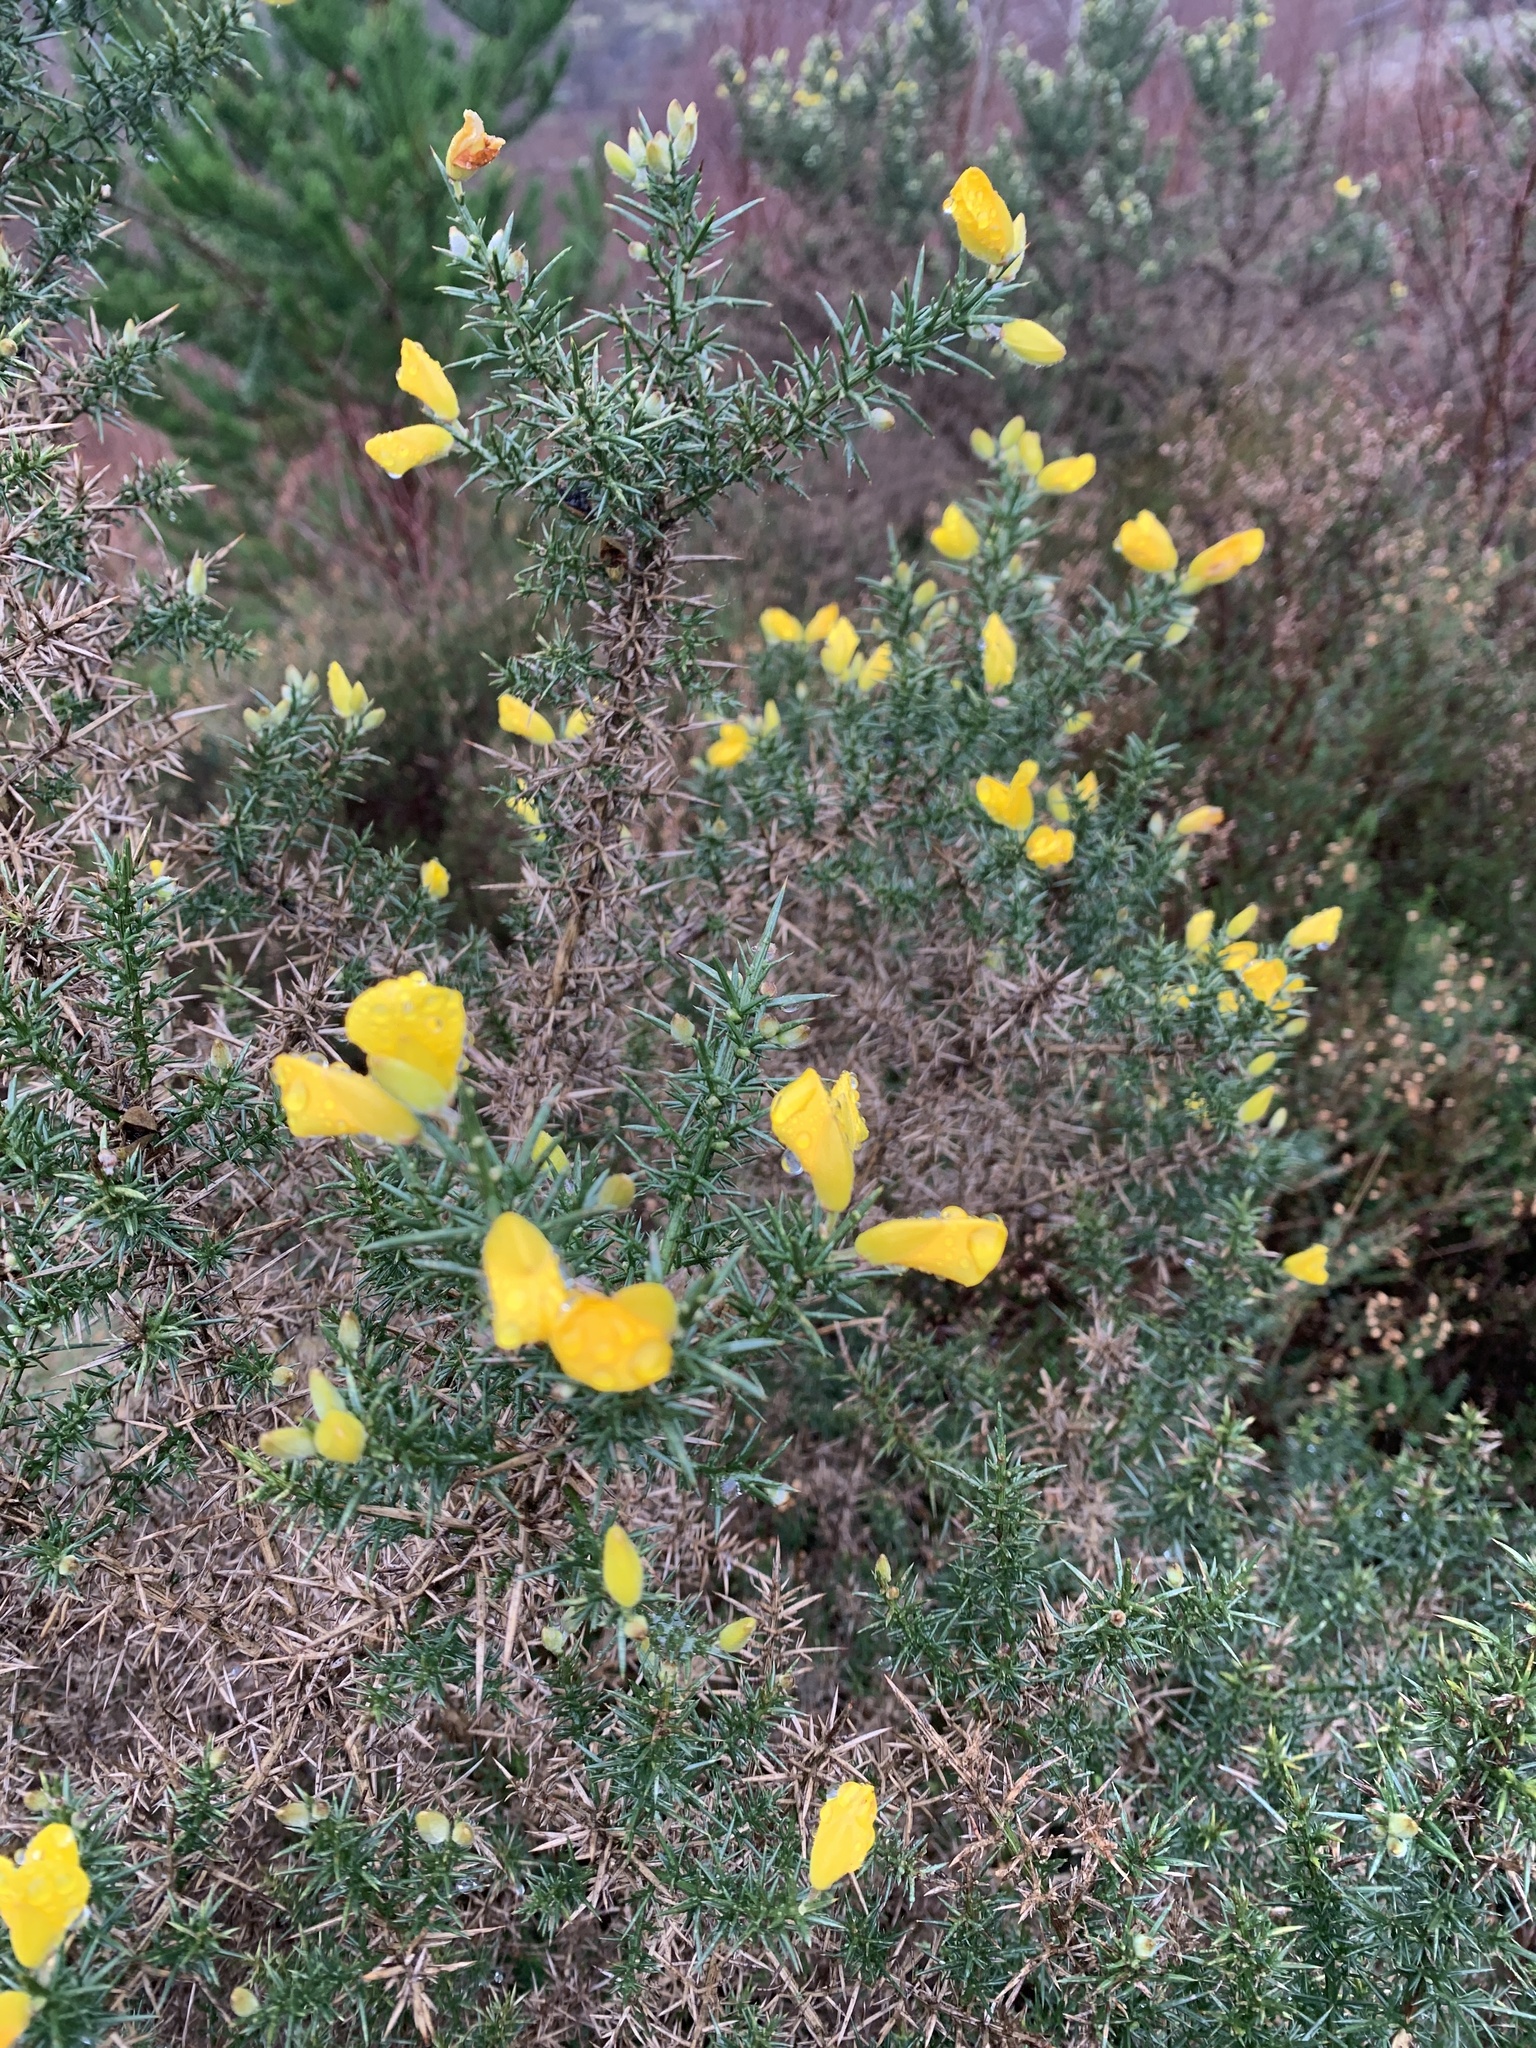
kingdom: Plantae
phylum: Tracheophyta
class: Magnoliopsida
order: Fabales
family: Fabaceae
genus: Ulex
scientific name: Ulex europaeus
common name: Common gorse
